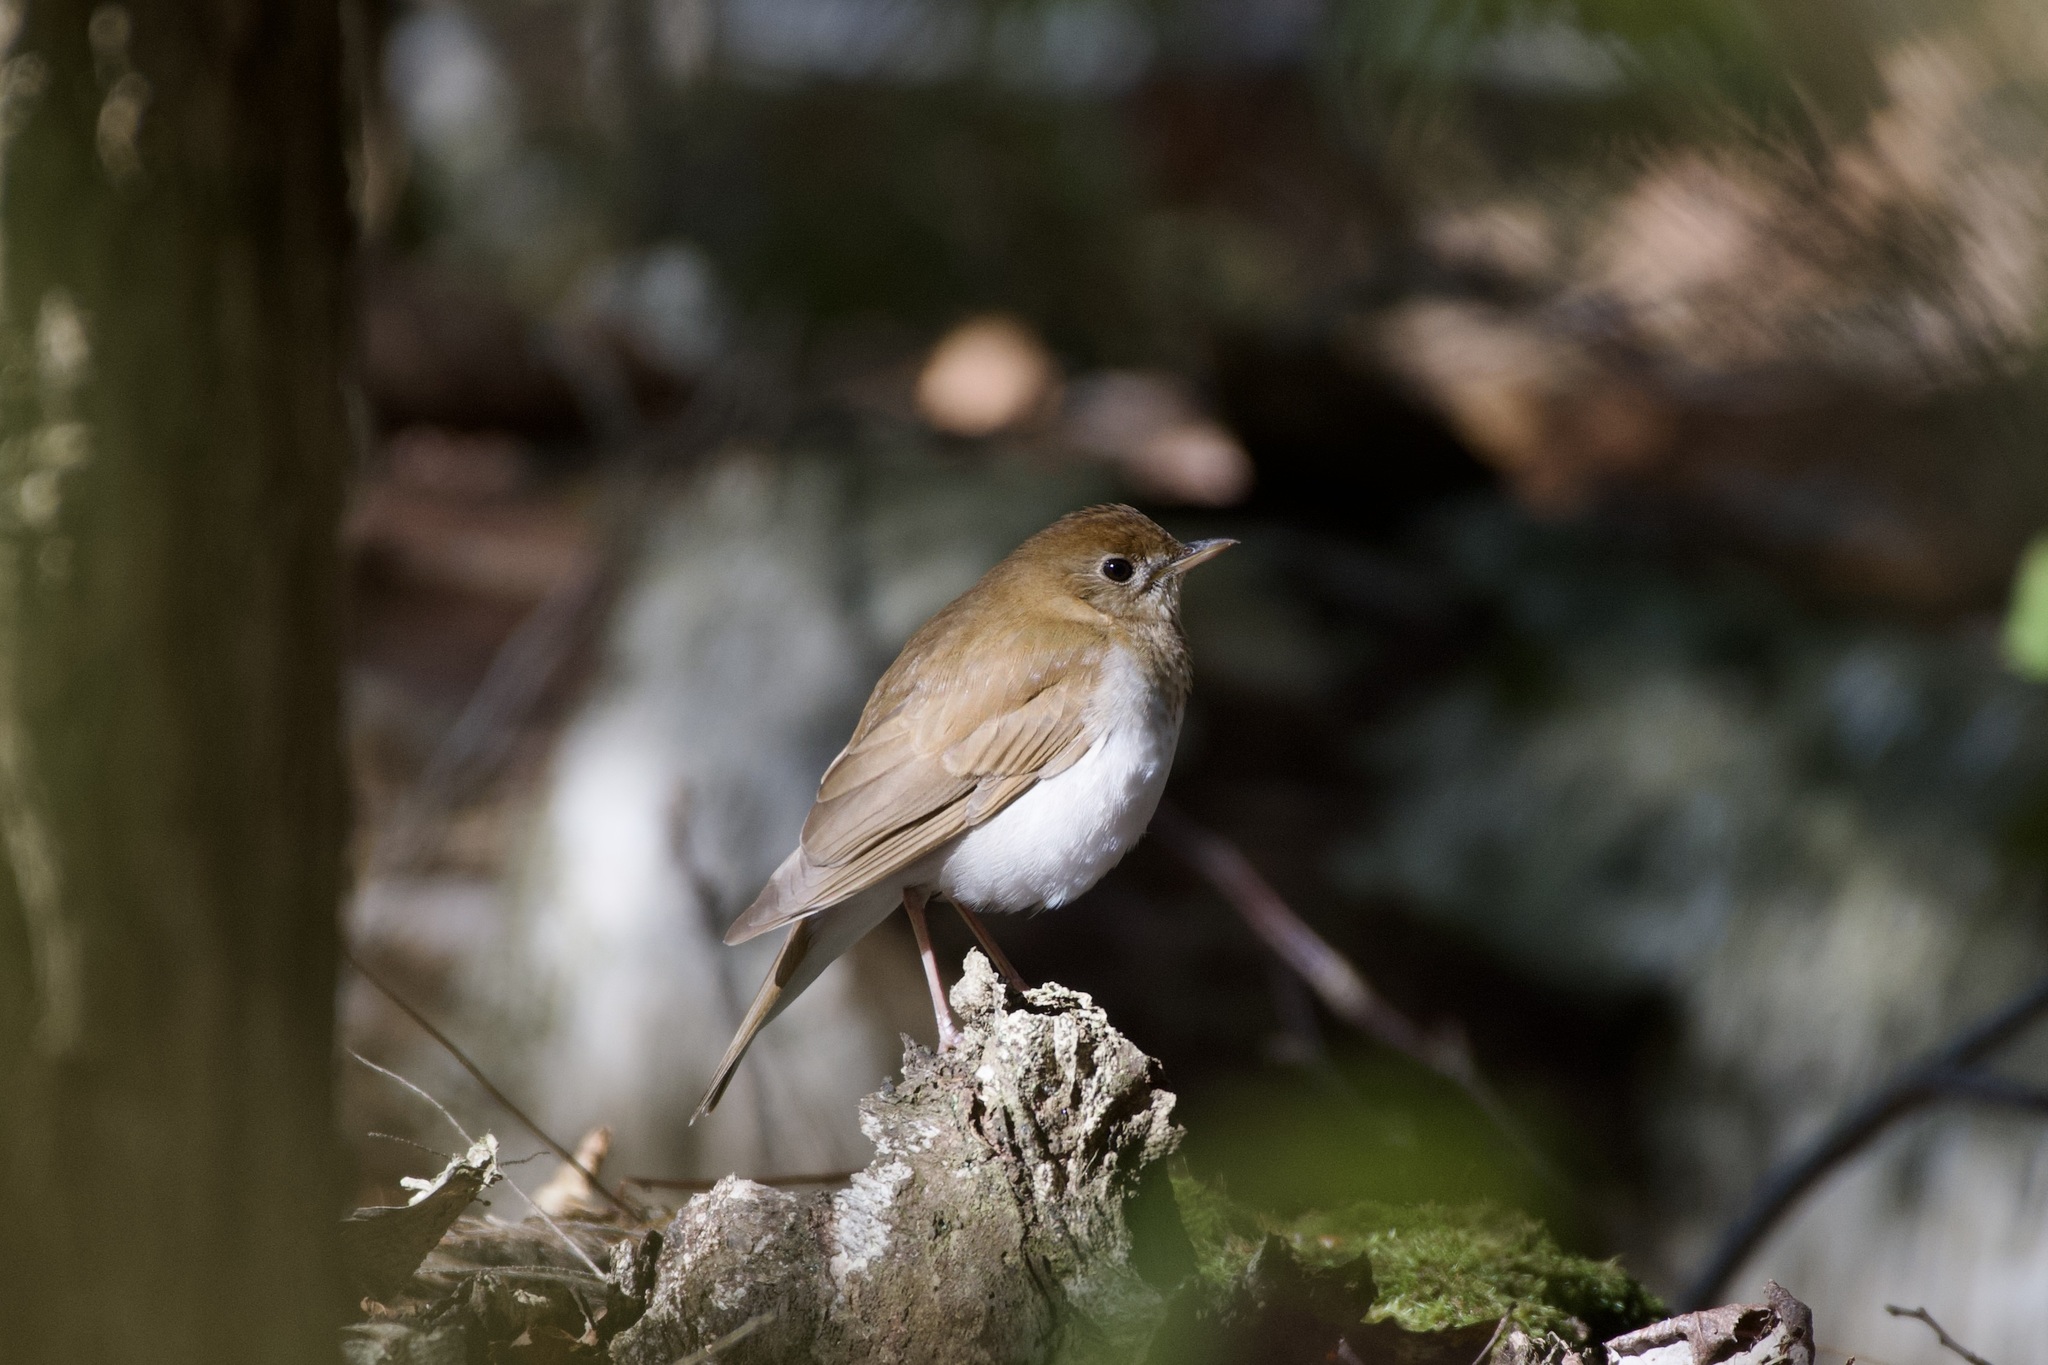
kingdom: Animalia
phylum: Chordata
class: Aves
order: Passeriformes
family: Turdidae
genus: Catharus
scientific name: Catharus fuscescens
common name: Veery
